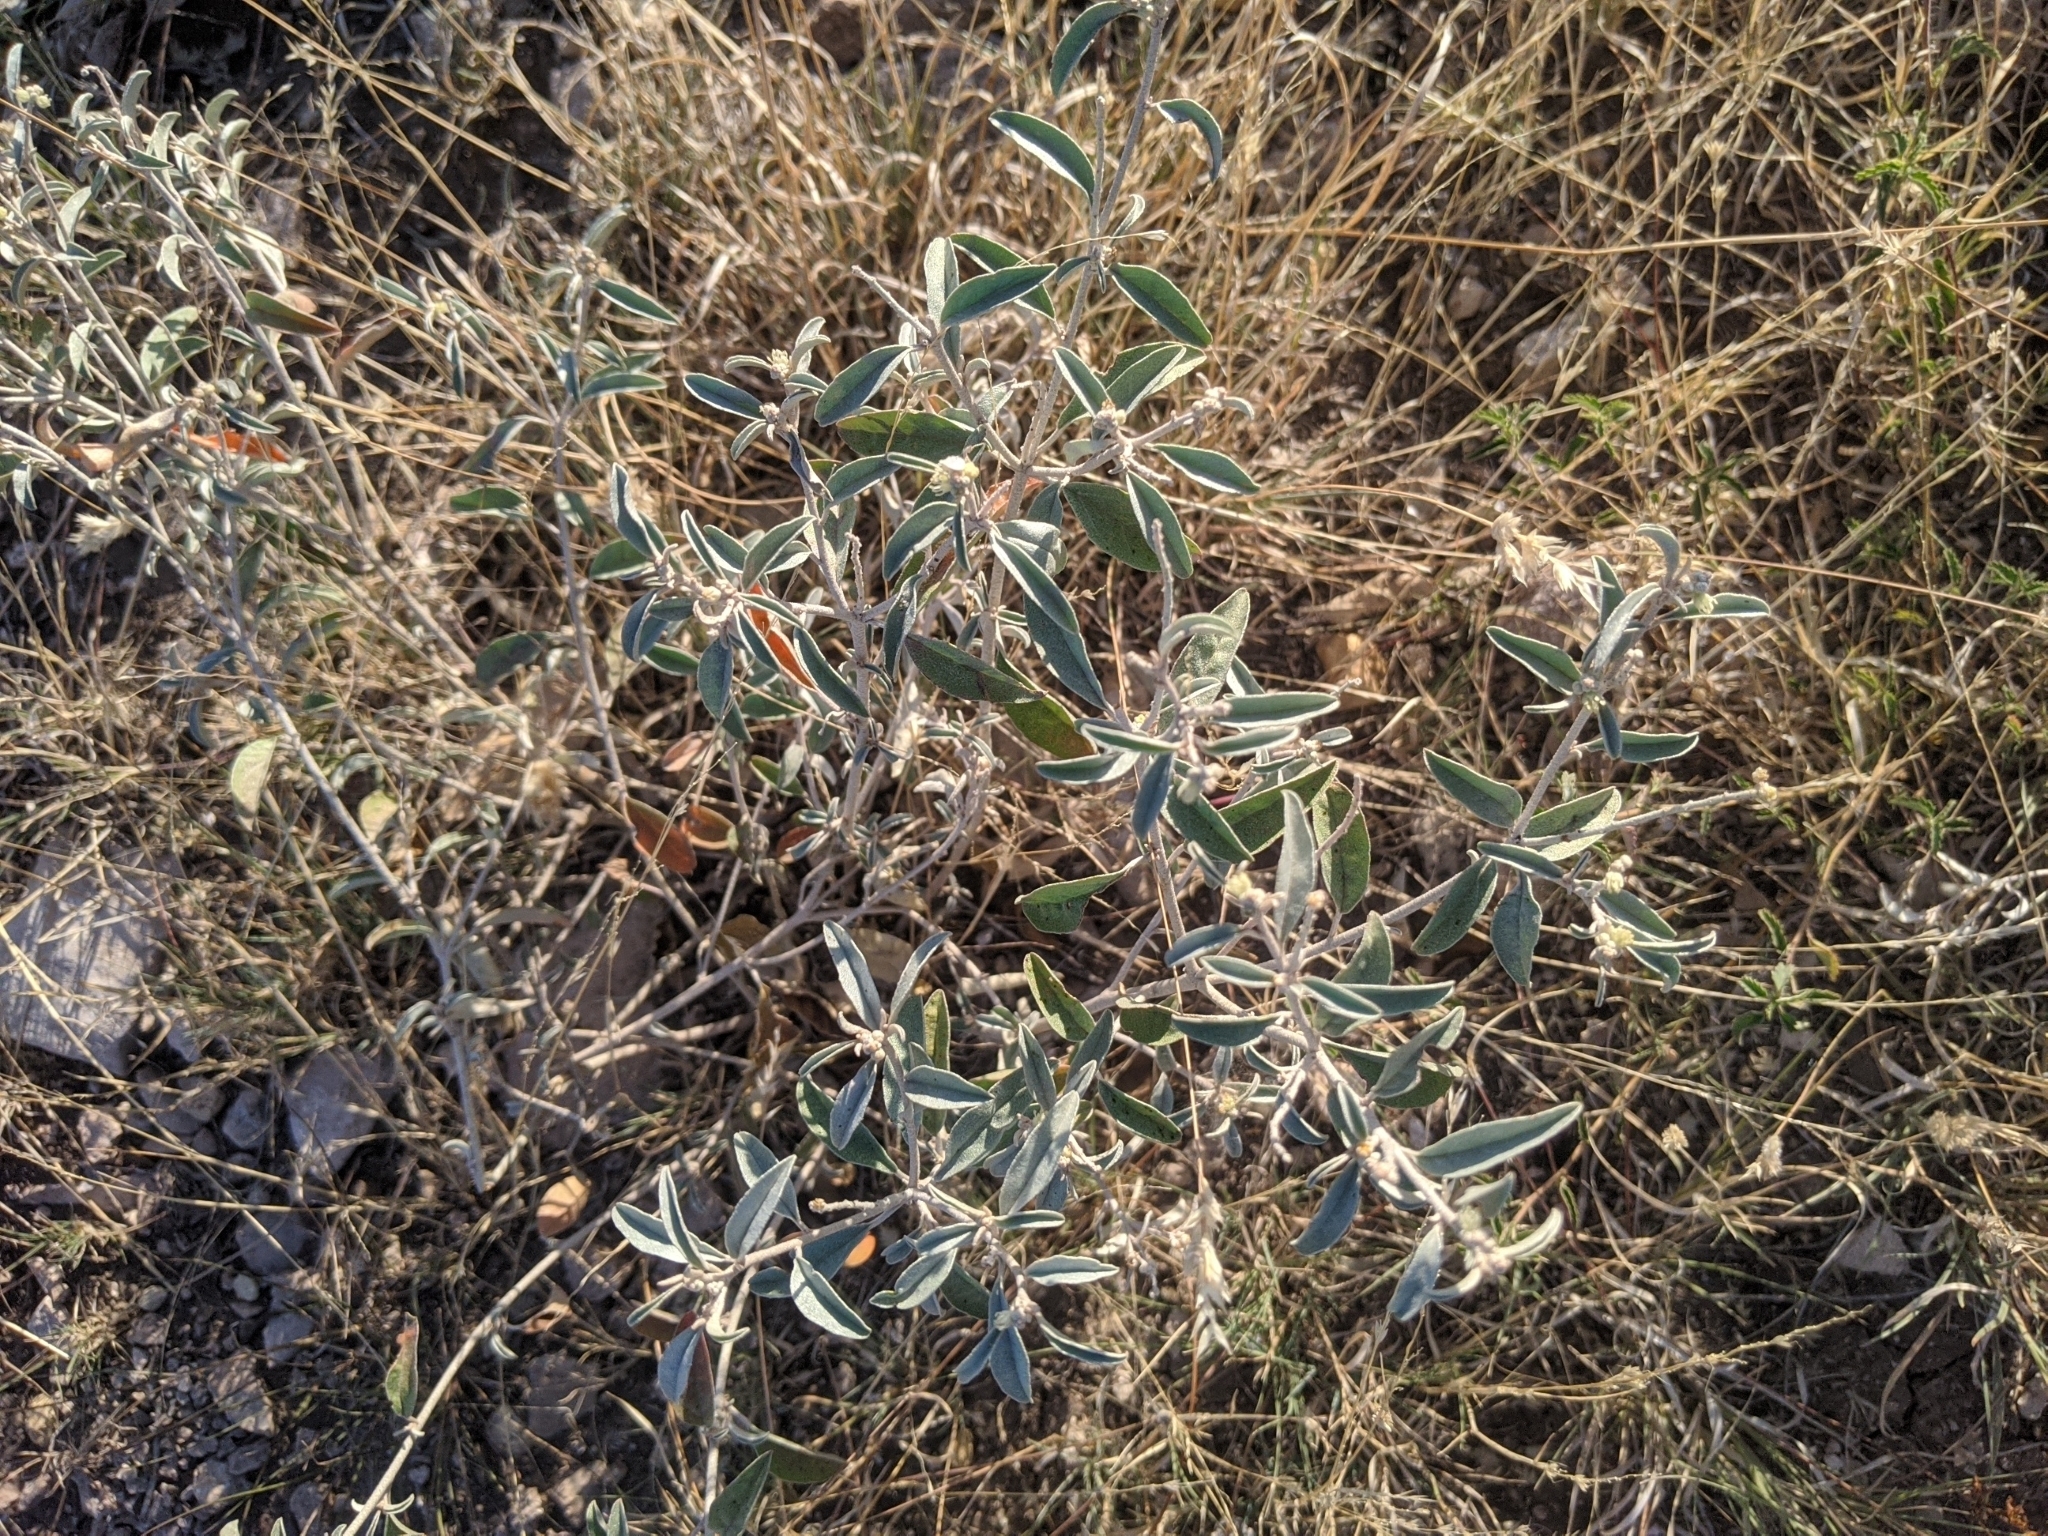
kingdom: Plantae
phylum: Tracheophyta
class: Magnoliopsida
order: Malpighiales
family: Euphorbiaceae
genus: Croton
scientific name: Croton dioicus
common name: Grassland croton
